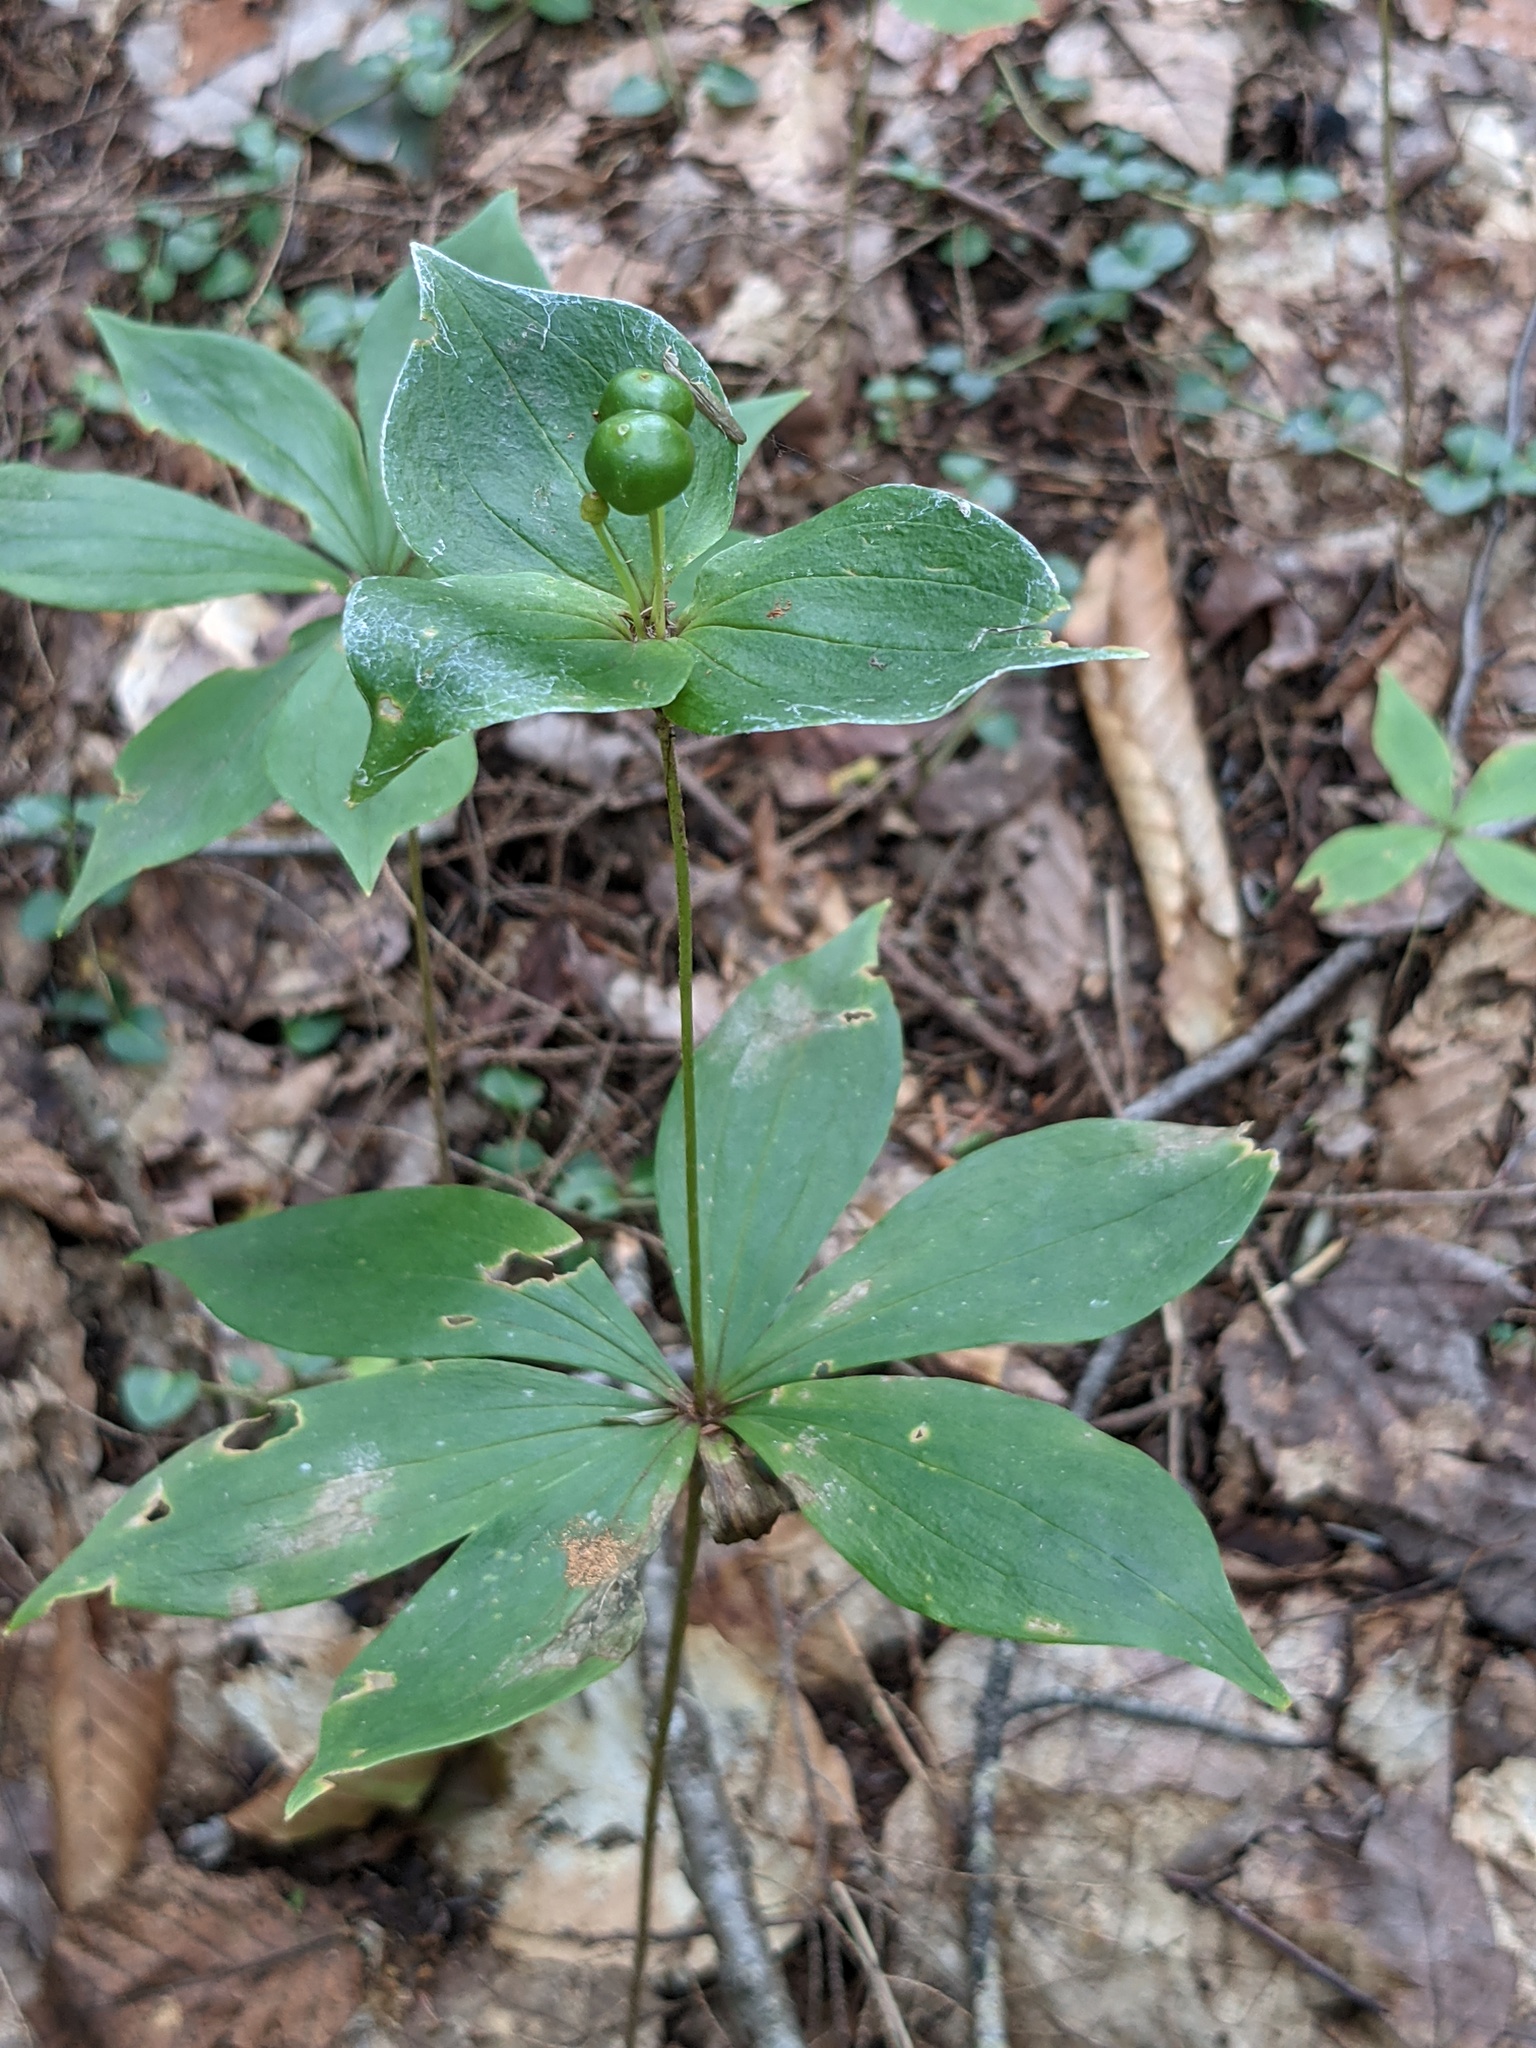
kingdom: Plantae
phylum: Tracheophyta
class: Liliopsida
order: Liliales
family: Liliaceae
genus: Medeola
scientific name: Medeola virginiana
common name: Indian cucumber-root
